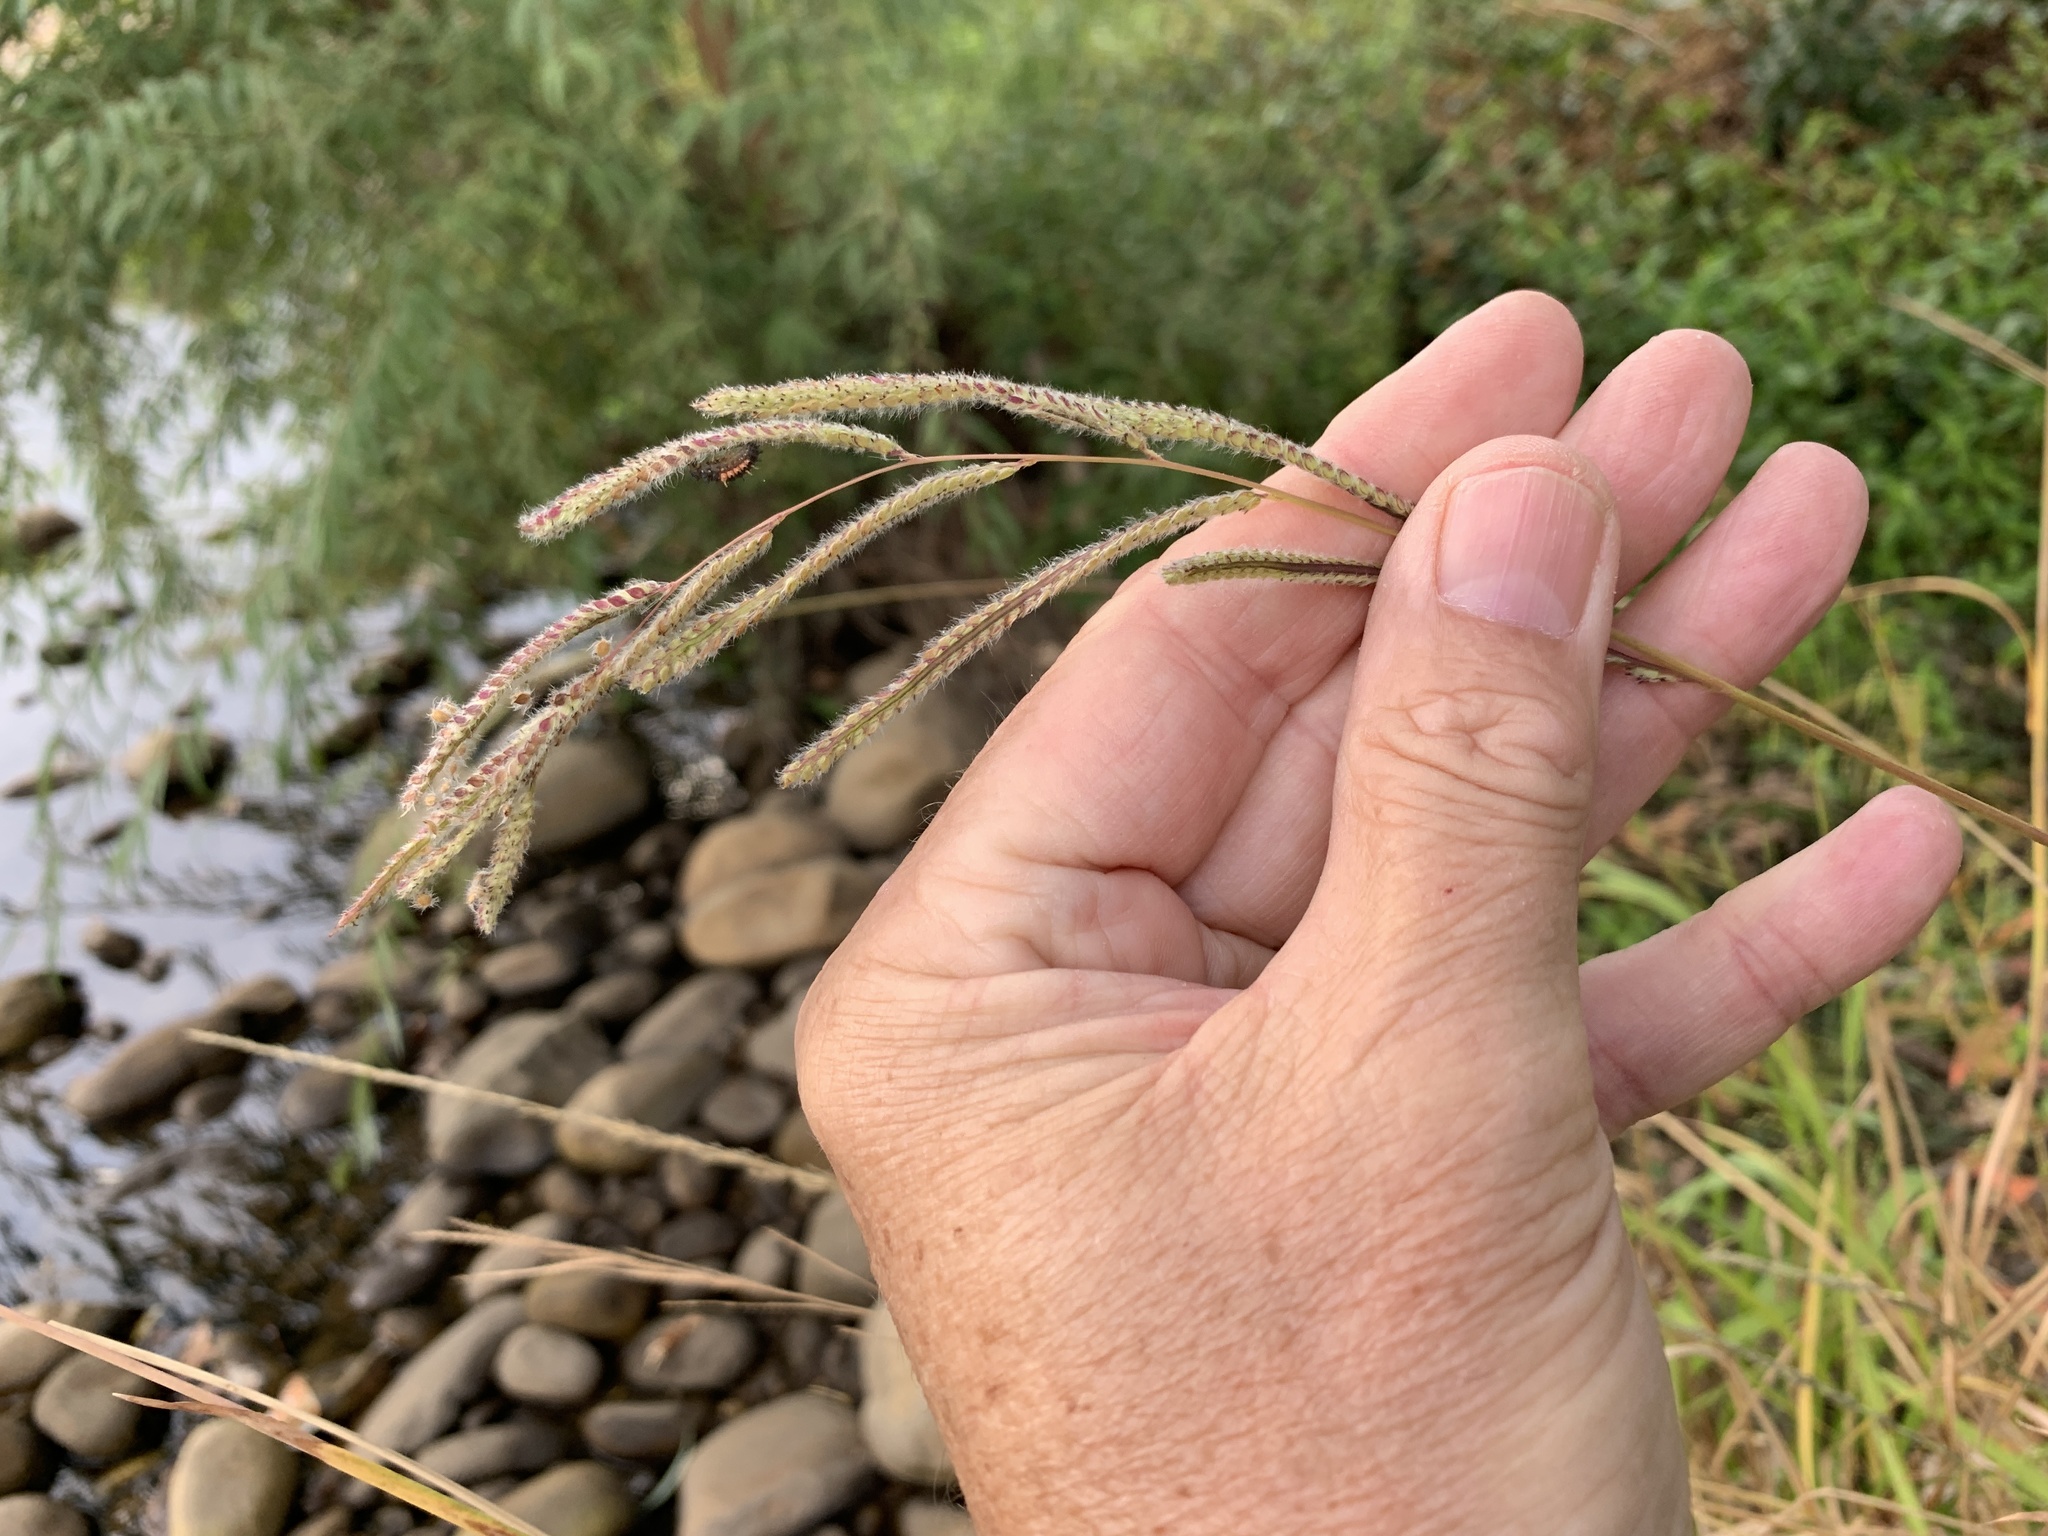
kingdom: Plantae
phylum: Tracheophyta
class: Liliopsida
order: Poales
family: Poaceae
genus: Paspalum
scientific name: Paspalum urvillei
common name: Vasey's grass
